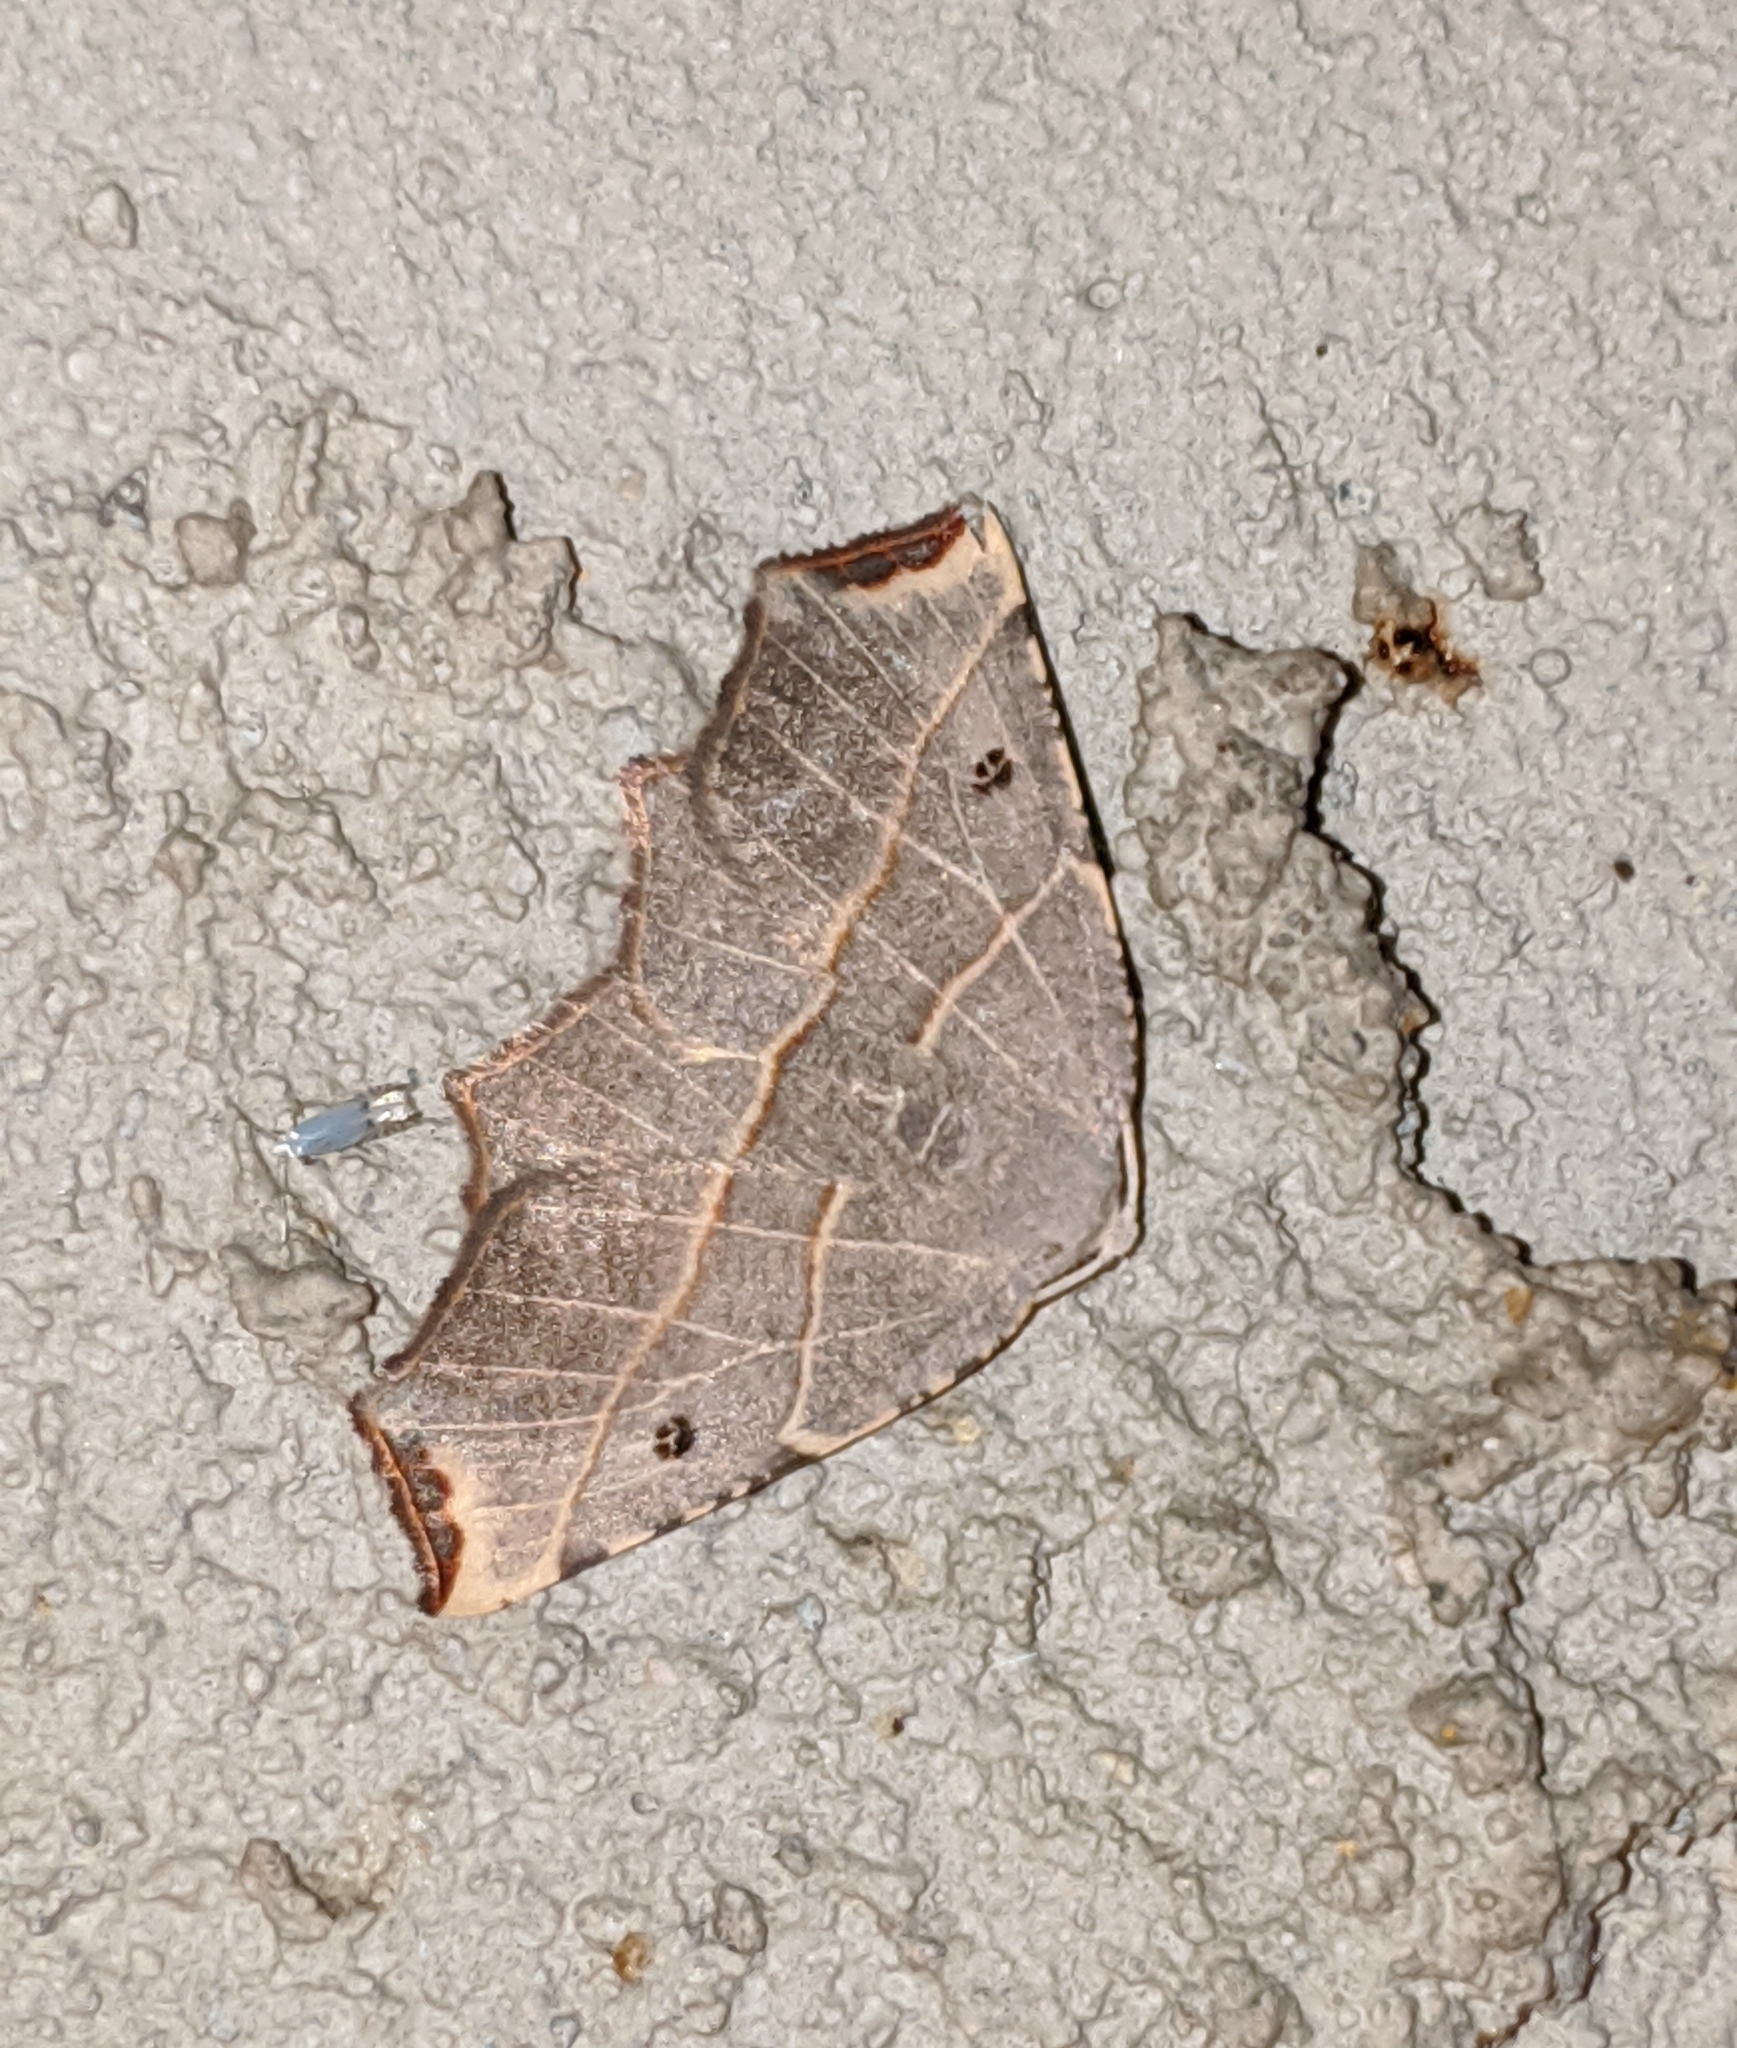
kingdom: Animalia
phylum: Arthropoda
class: Insecta
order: Lepidoptera
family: Geometridae
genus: Metanema
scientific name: Metanema inatomaria
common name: Pale metanema
